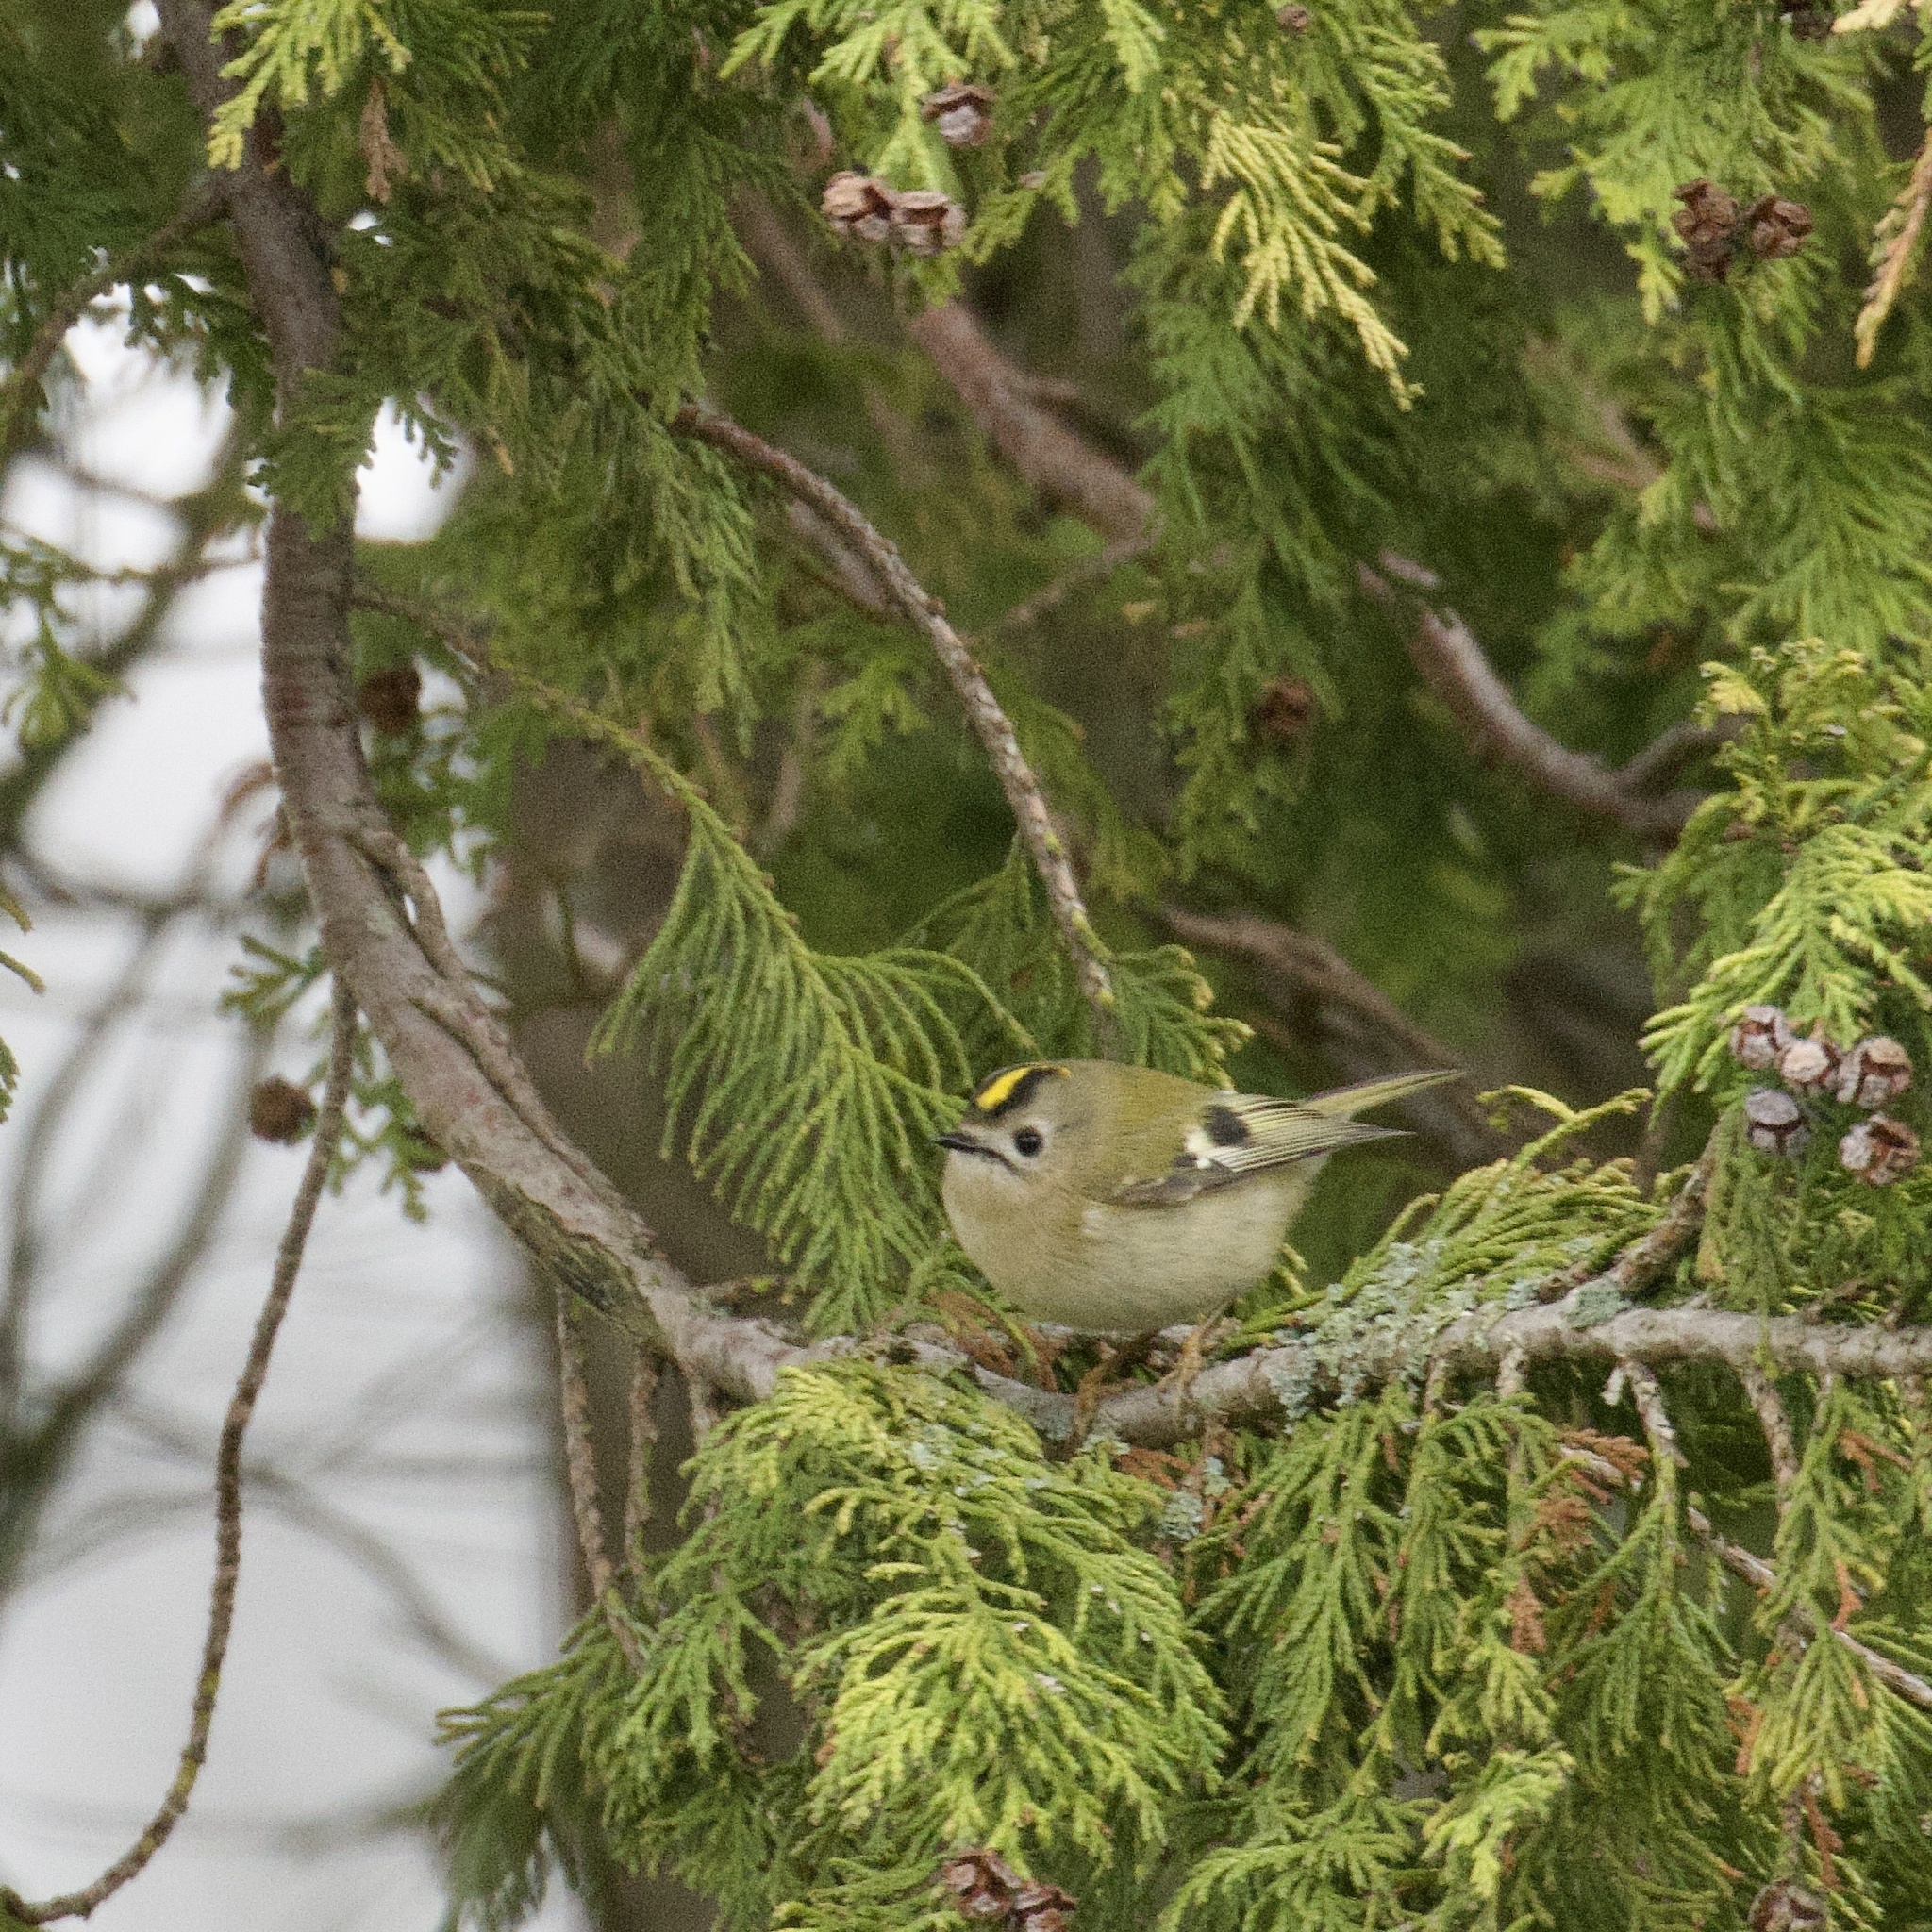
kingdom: Animalia
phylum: Chordata
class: Aves
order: Passeriformes
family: Regulidae
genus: Regulus
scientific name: Regulus regulus
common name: Goldcrest
